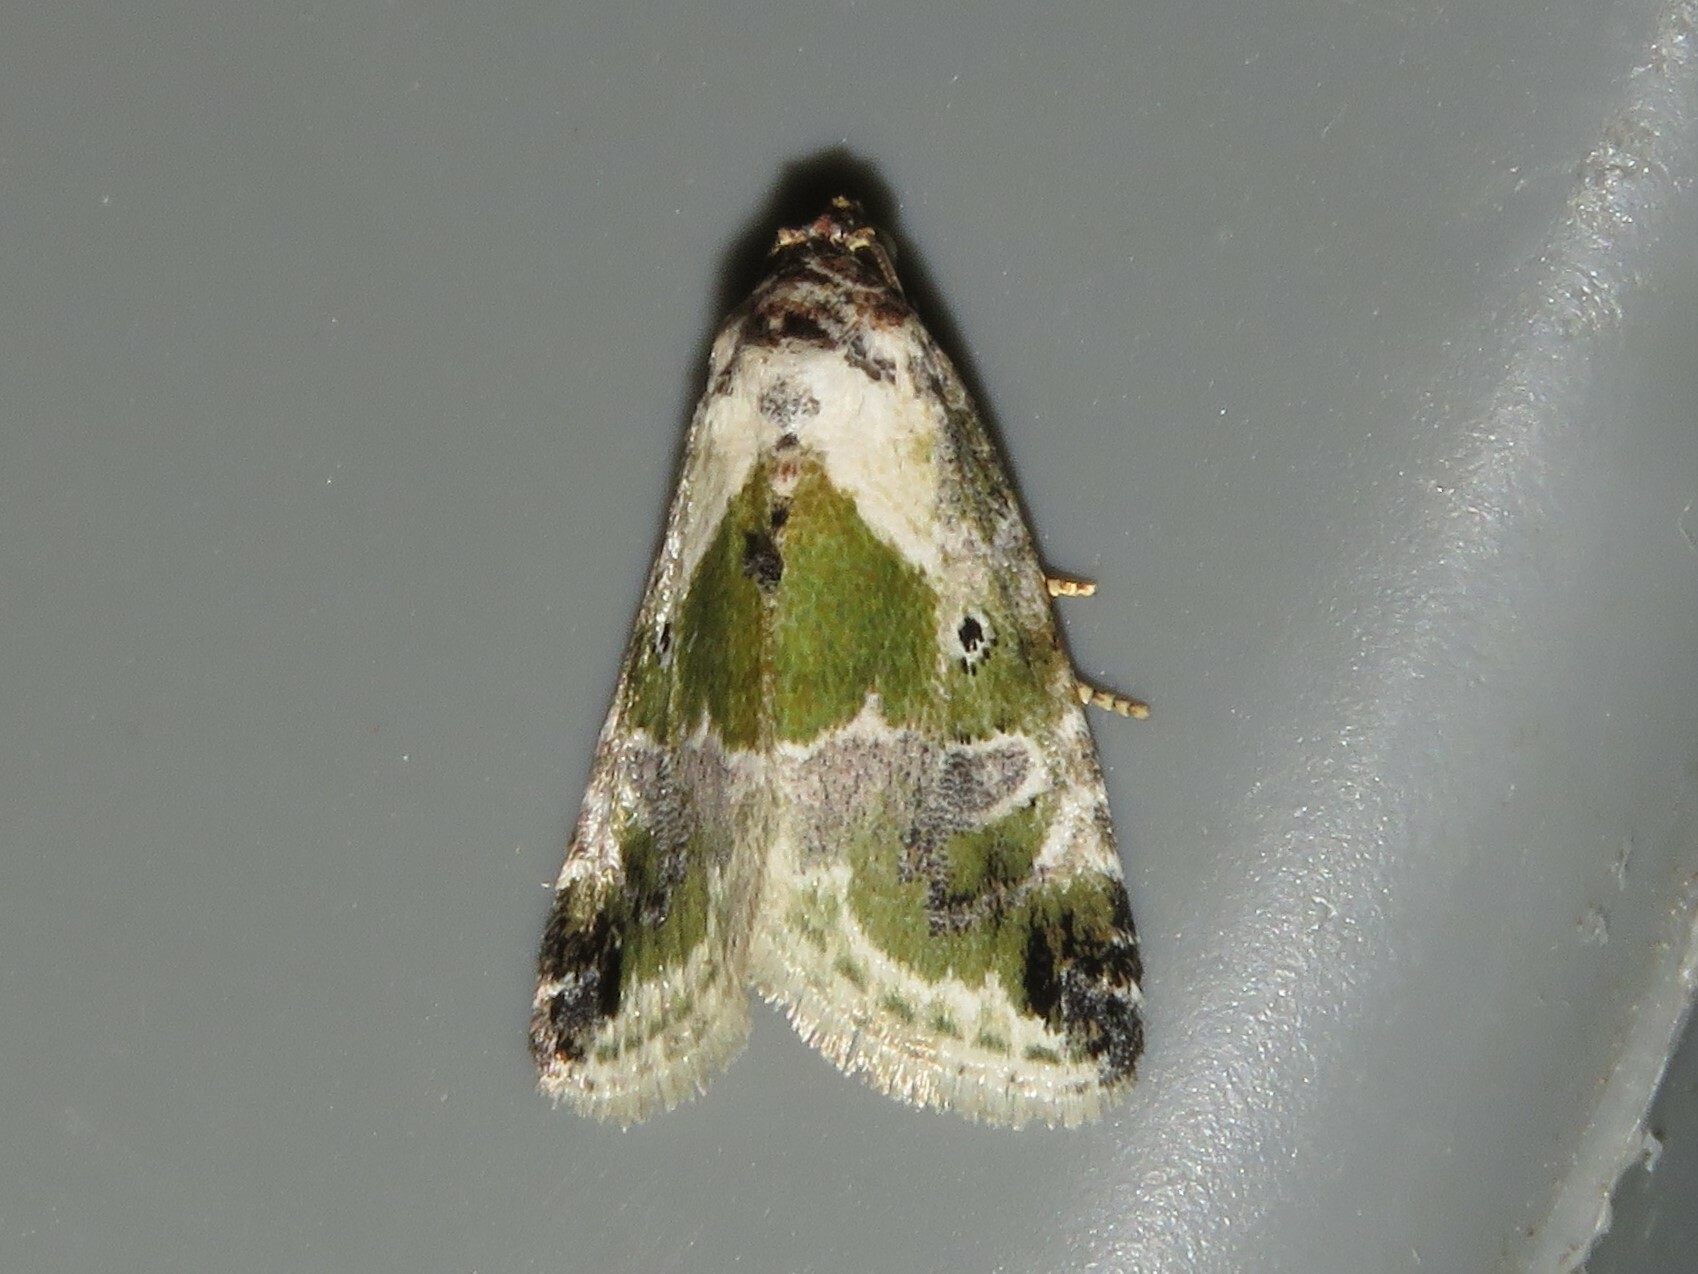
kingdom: Animalia
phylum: Arthropoda
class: Insecta
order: Lepidoptera
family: Noctuidae
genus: Maliattha
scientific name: Maliattha synochitis
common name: Black-dotted glyph
